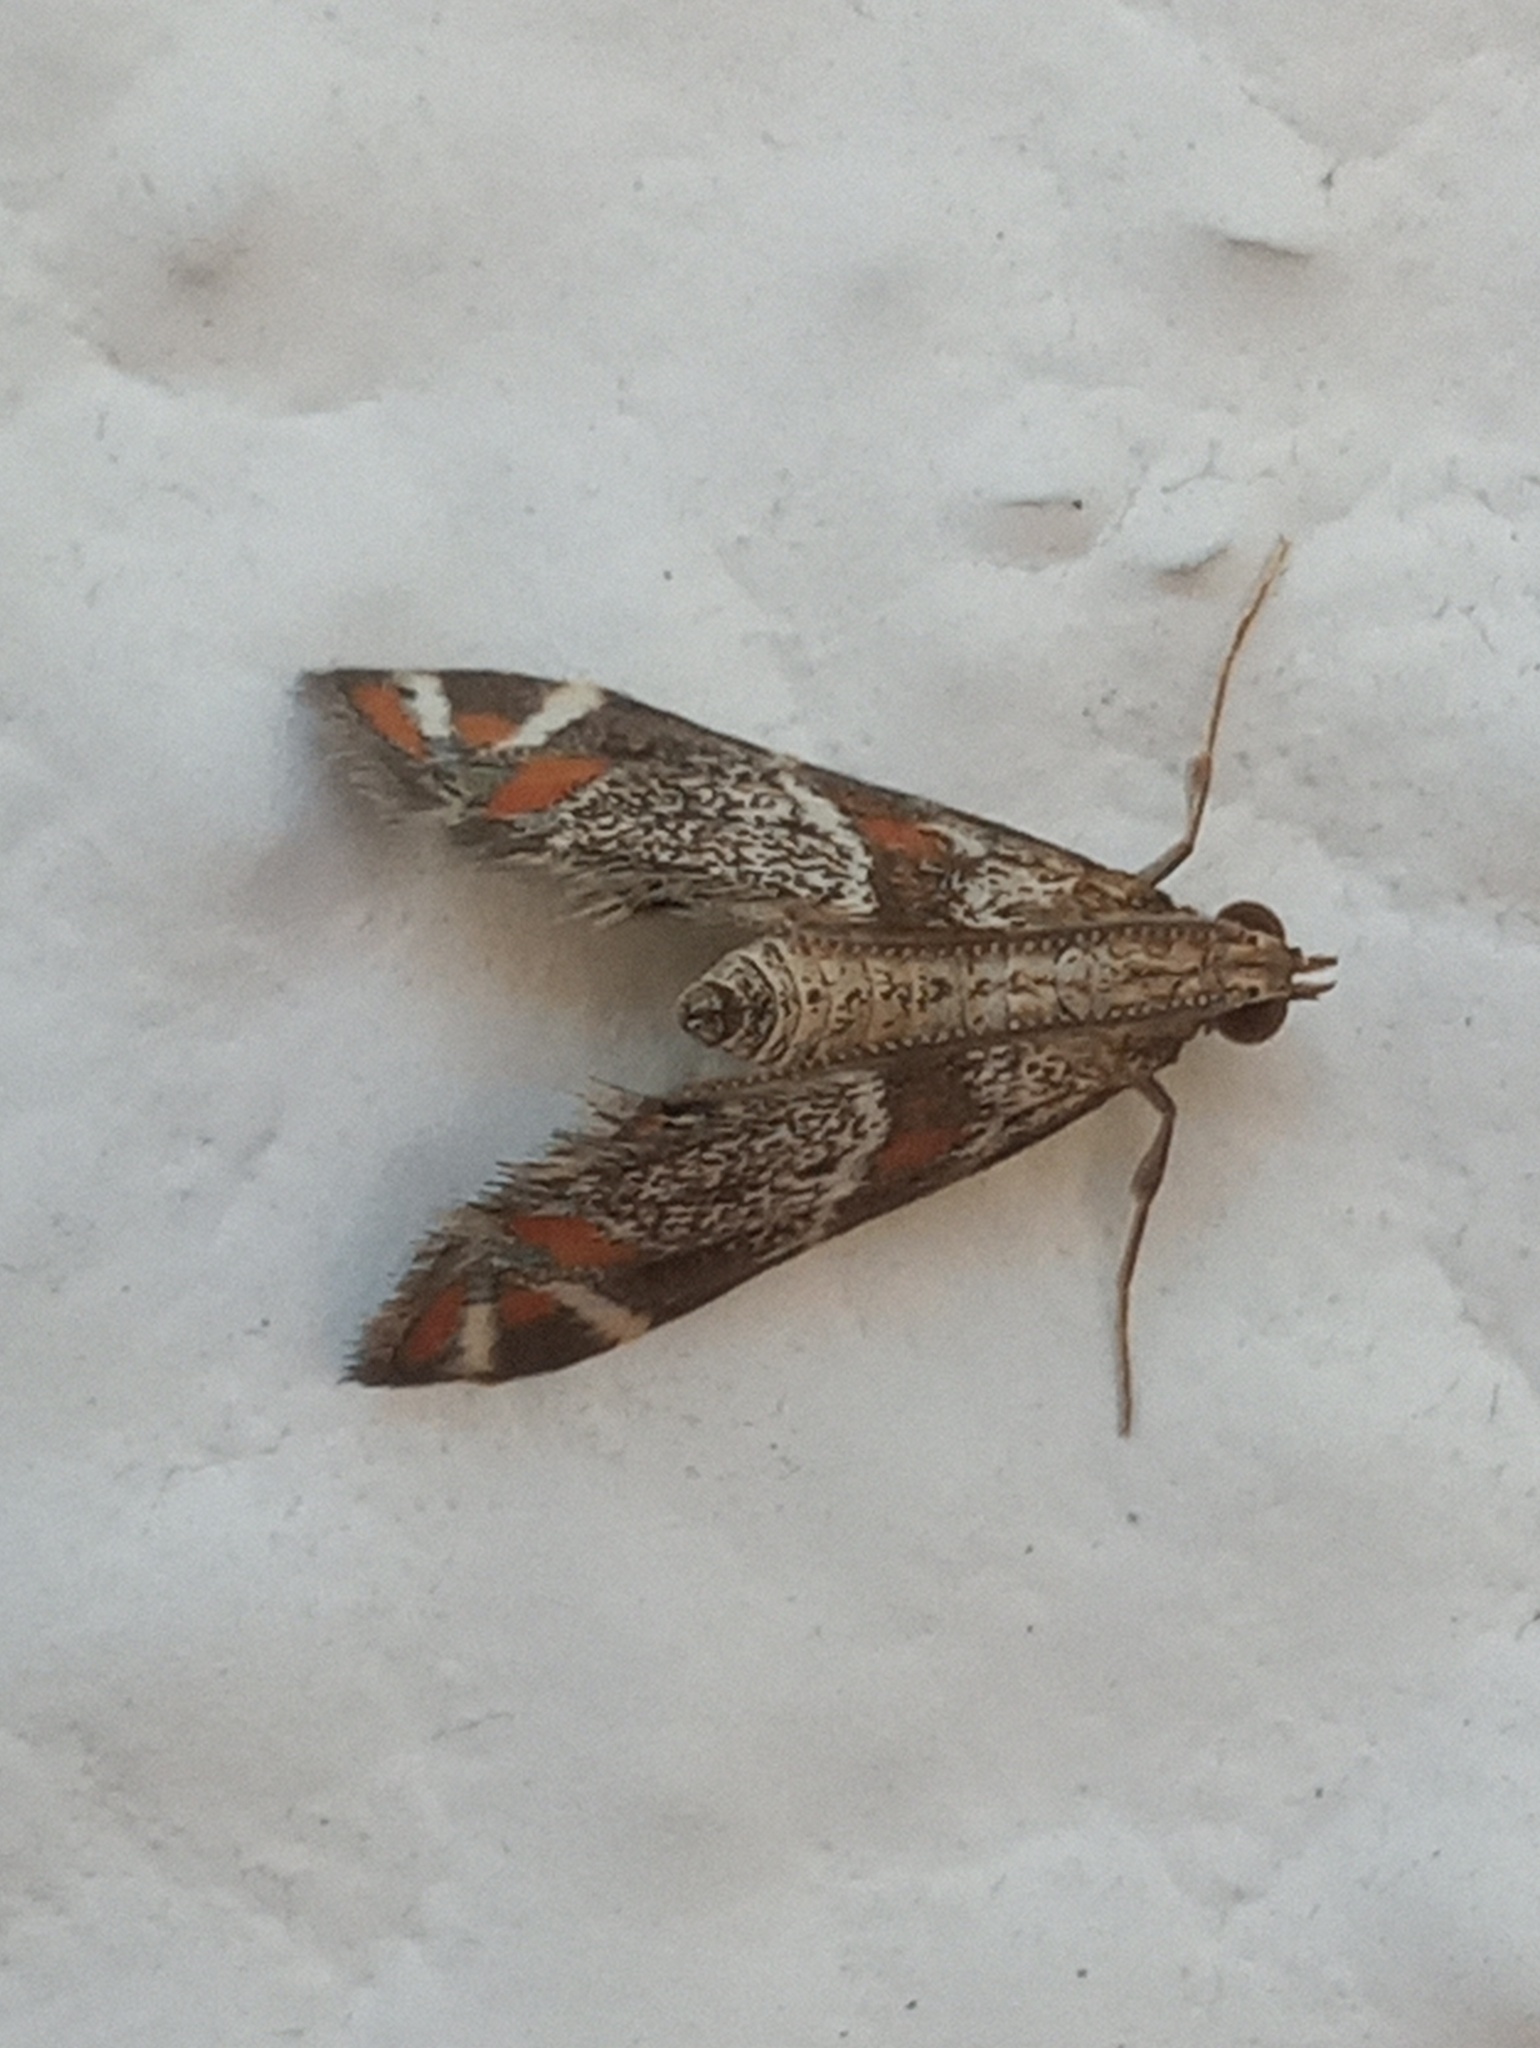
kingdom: Animalia
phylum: Arthropoda
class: Insecta
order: Lepidoptera
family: Crambidae
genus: Petrophila
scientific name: Petrophila jaliscalis
